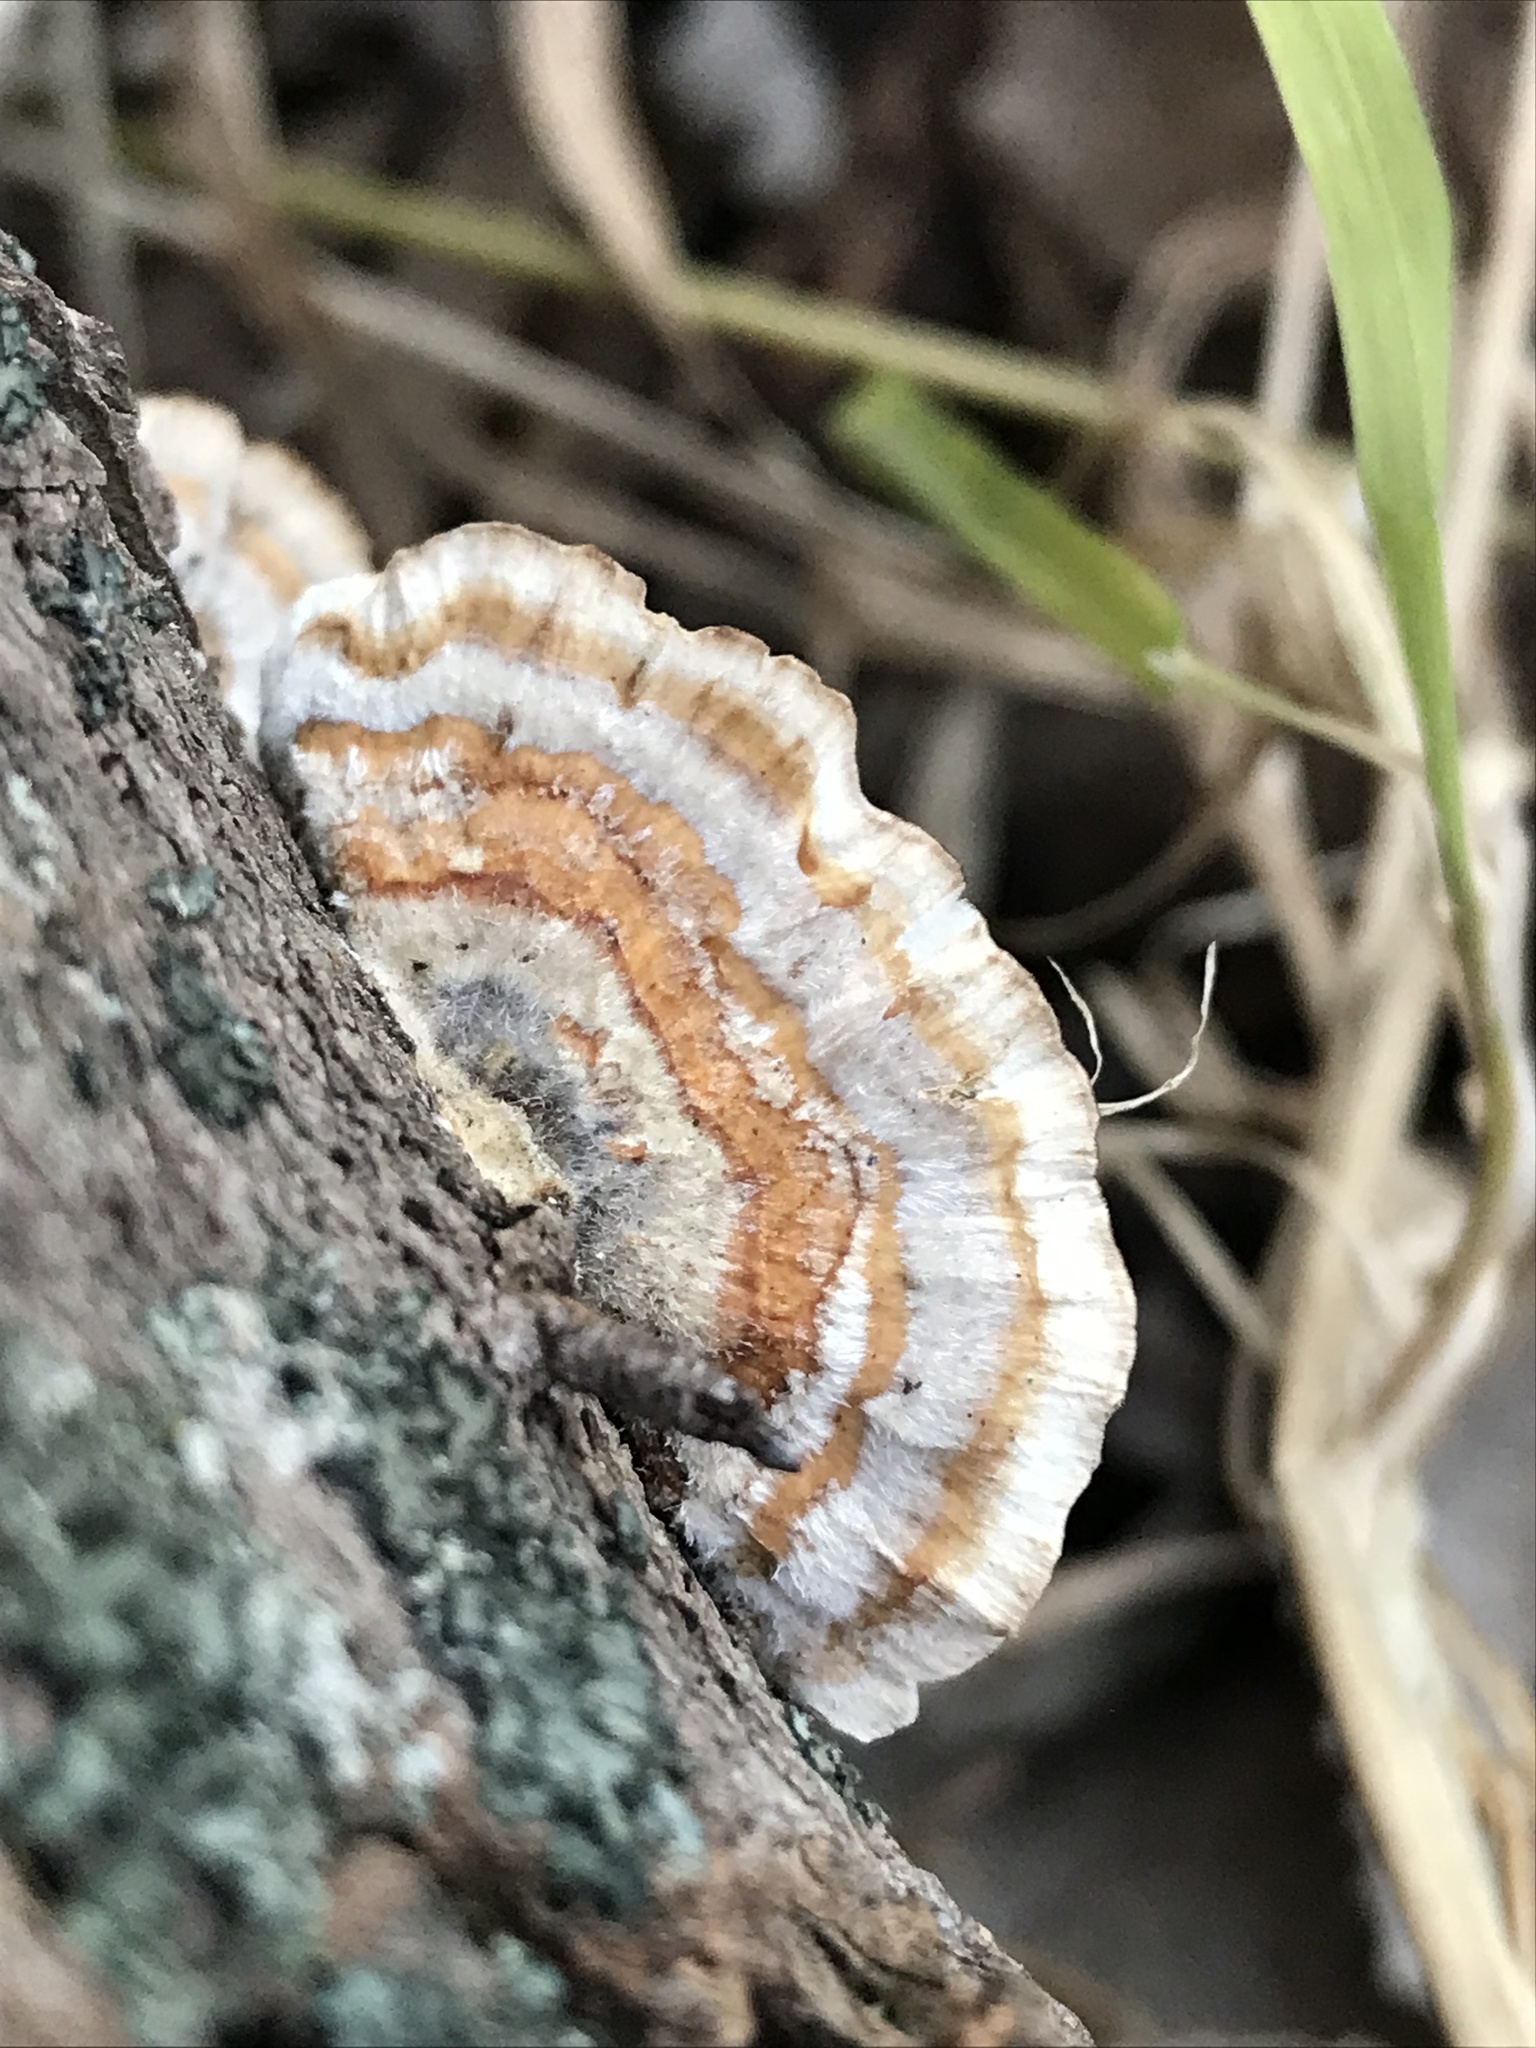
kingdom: Fungi
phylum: Basidiomycota
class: Agaricomycetes
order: Polyporales
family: Polyporaceae
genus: Trametes
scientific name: Trametes versicolor
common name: Turkeytail
